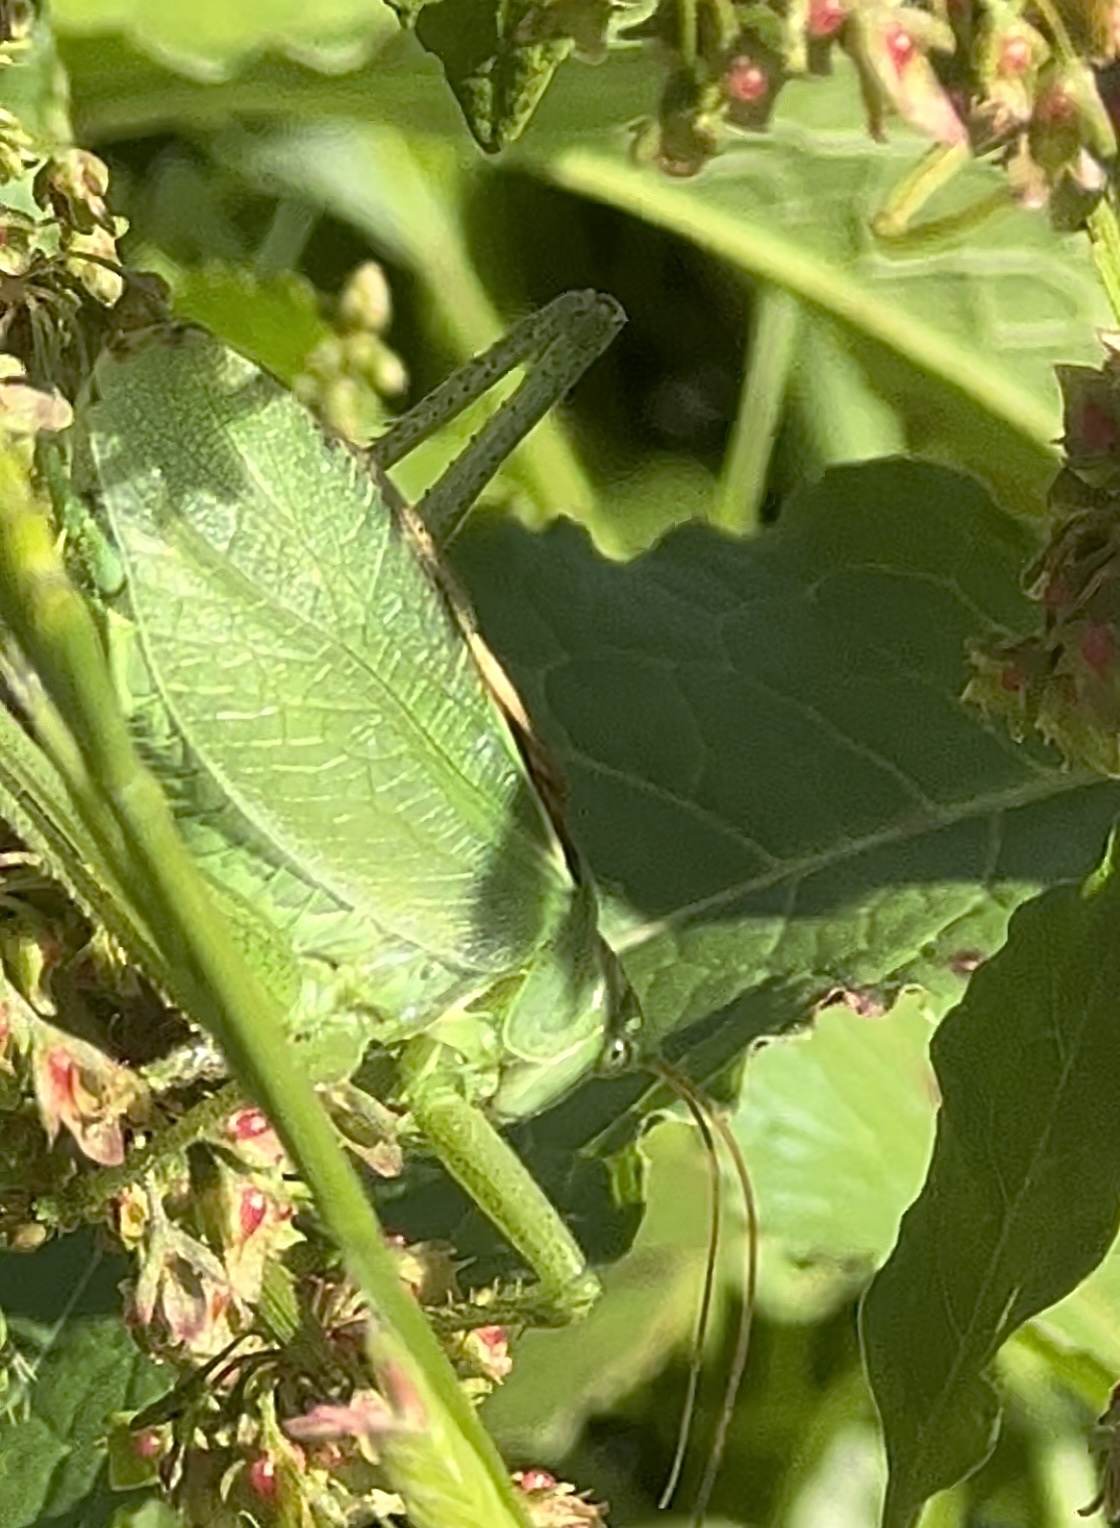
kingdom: Animalia
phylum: Arthropoda
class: Insecta
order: Orthoptera
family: Tettigoniidae
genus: Tettigonia
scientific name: Tettigonia cantans
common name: Upland green bush-cricket
